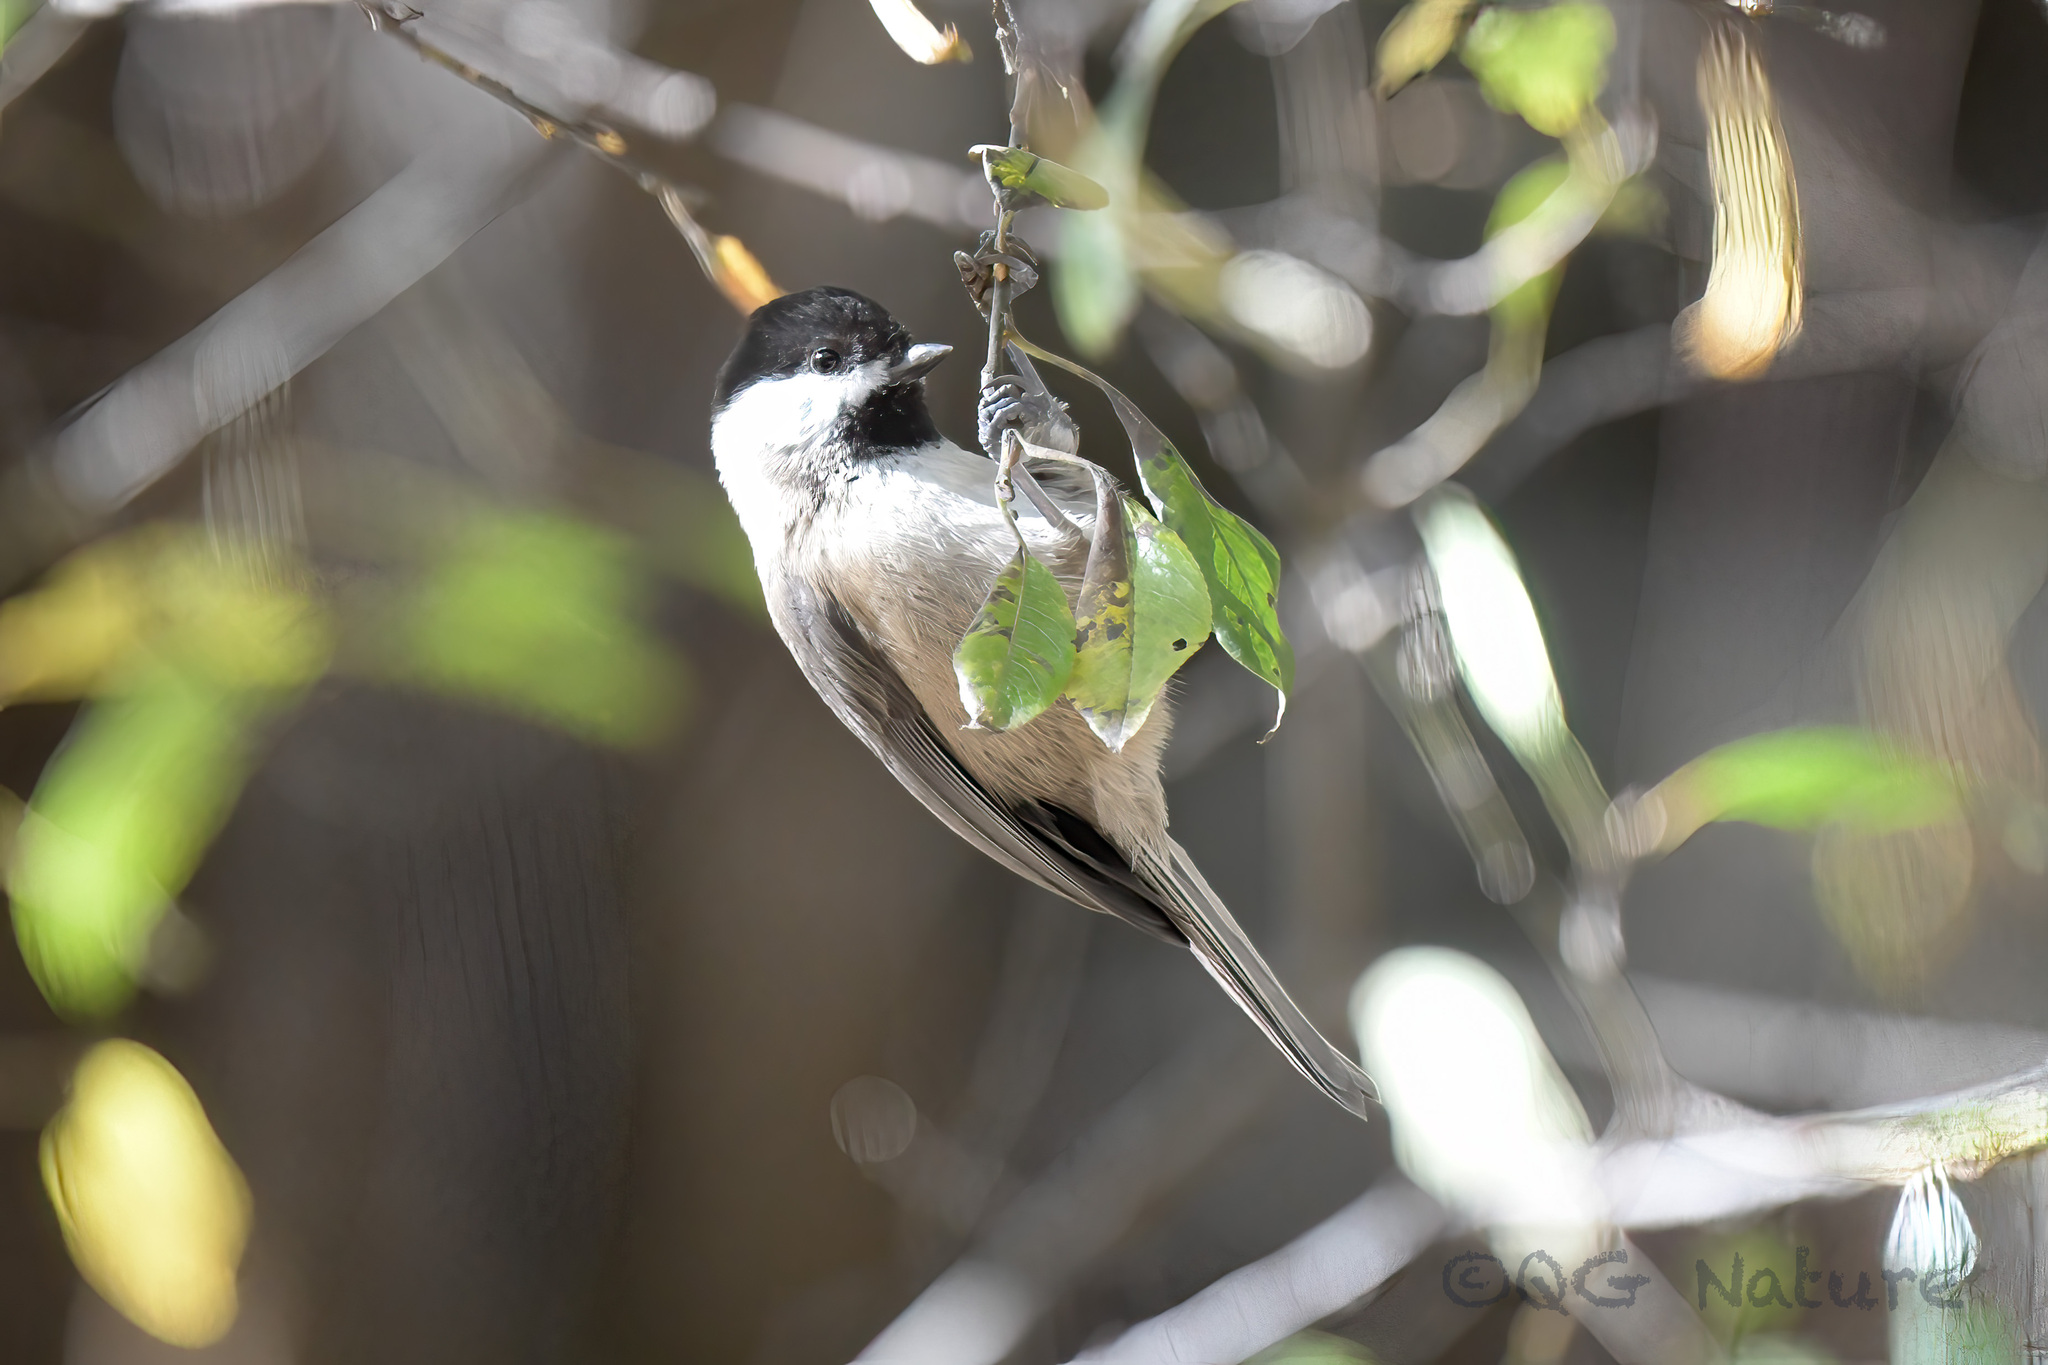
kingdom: Animalia
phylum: Chordata
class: Aves
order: Passeriformes
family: Paridae
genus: Poecile
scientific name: Poecile weigoldicus
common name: Sichuan tit
